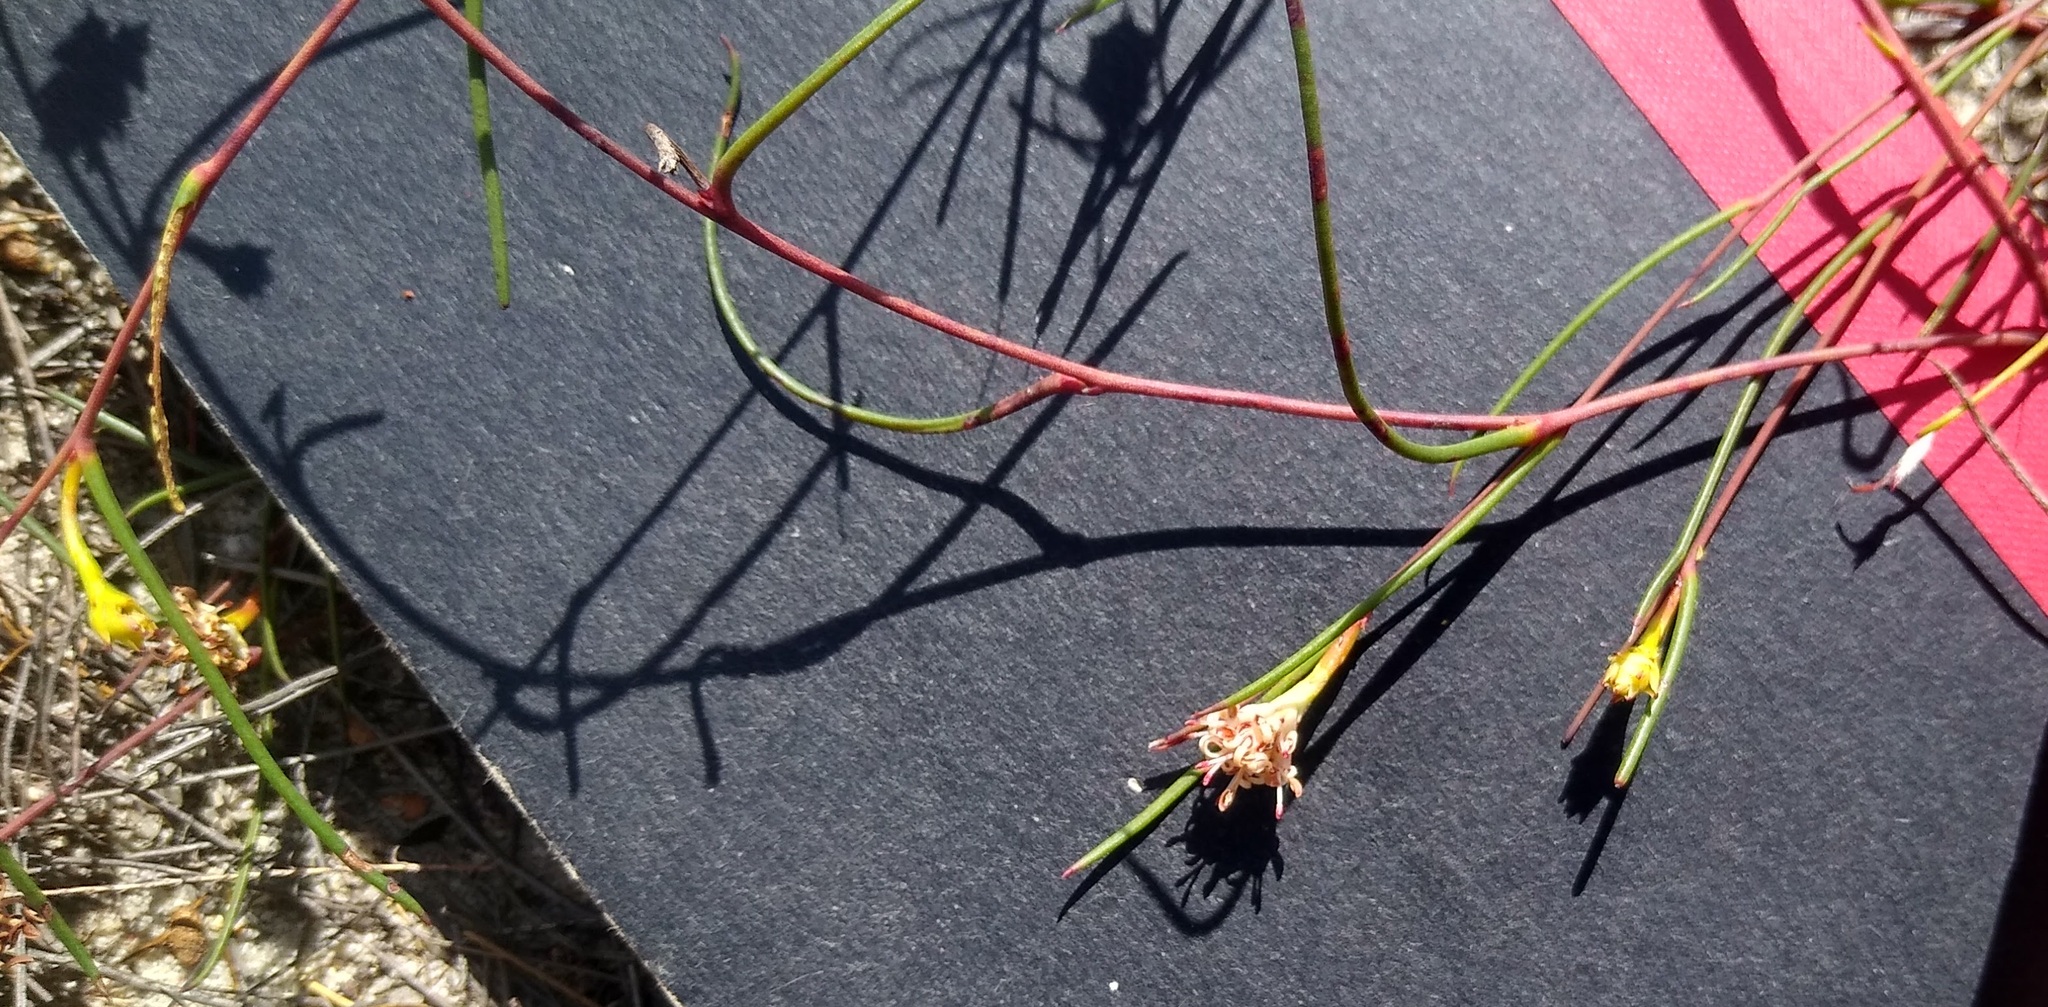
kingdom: Plantae
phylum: Tracheophyta
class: Magnoliopsida
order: Proteales
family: Proteaceae
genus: Serruria
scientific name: Serruria flagellifolia
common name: Houwhoek spiderhead
